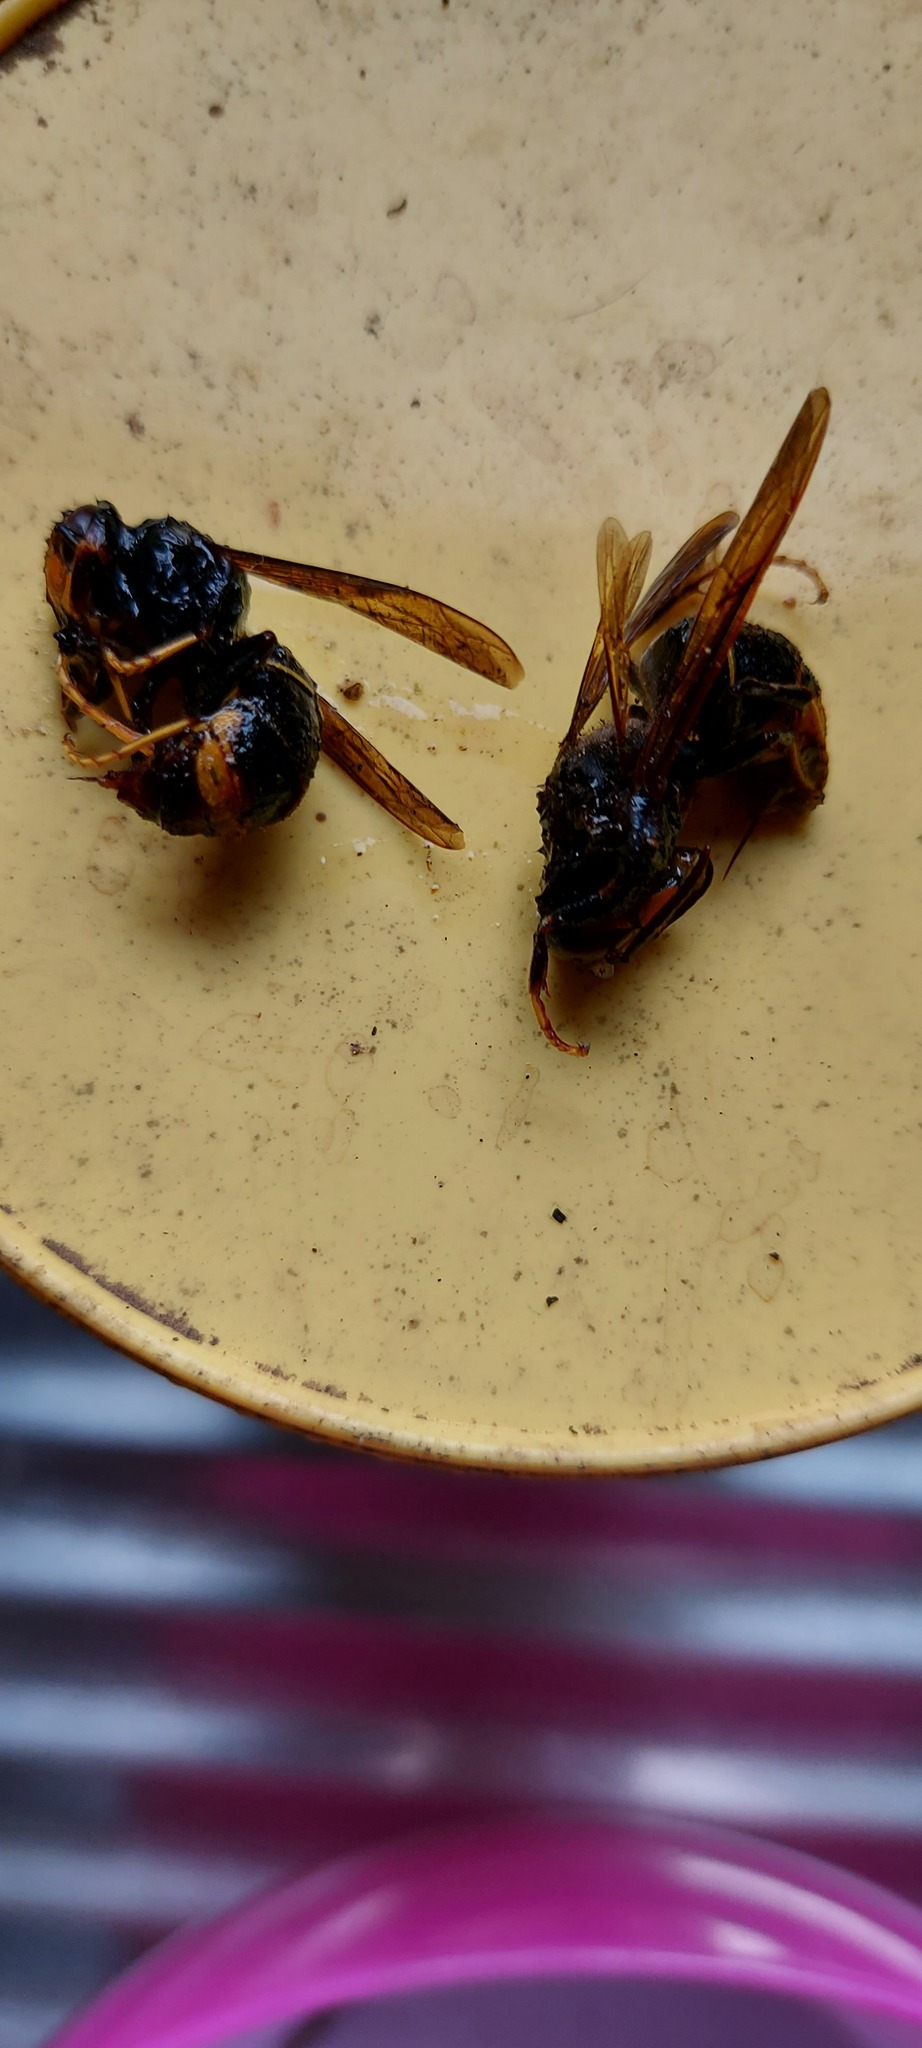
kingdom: Animalia
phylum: Arthropoda
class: Insecta
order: Hymenoptera
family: Vespidae
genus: Vespa
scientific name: Vespa velutina
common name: Asian hornet
